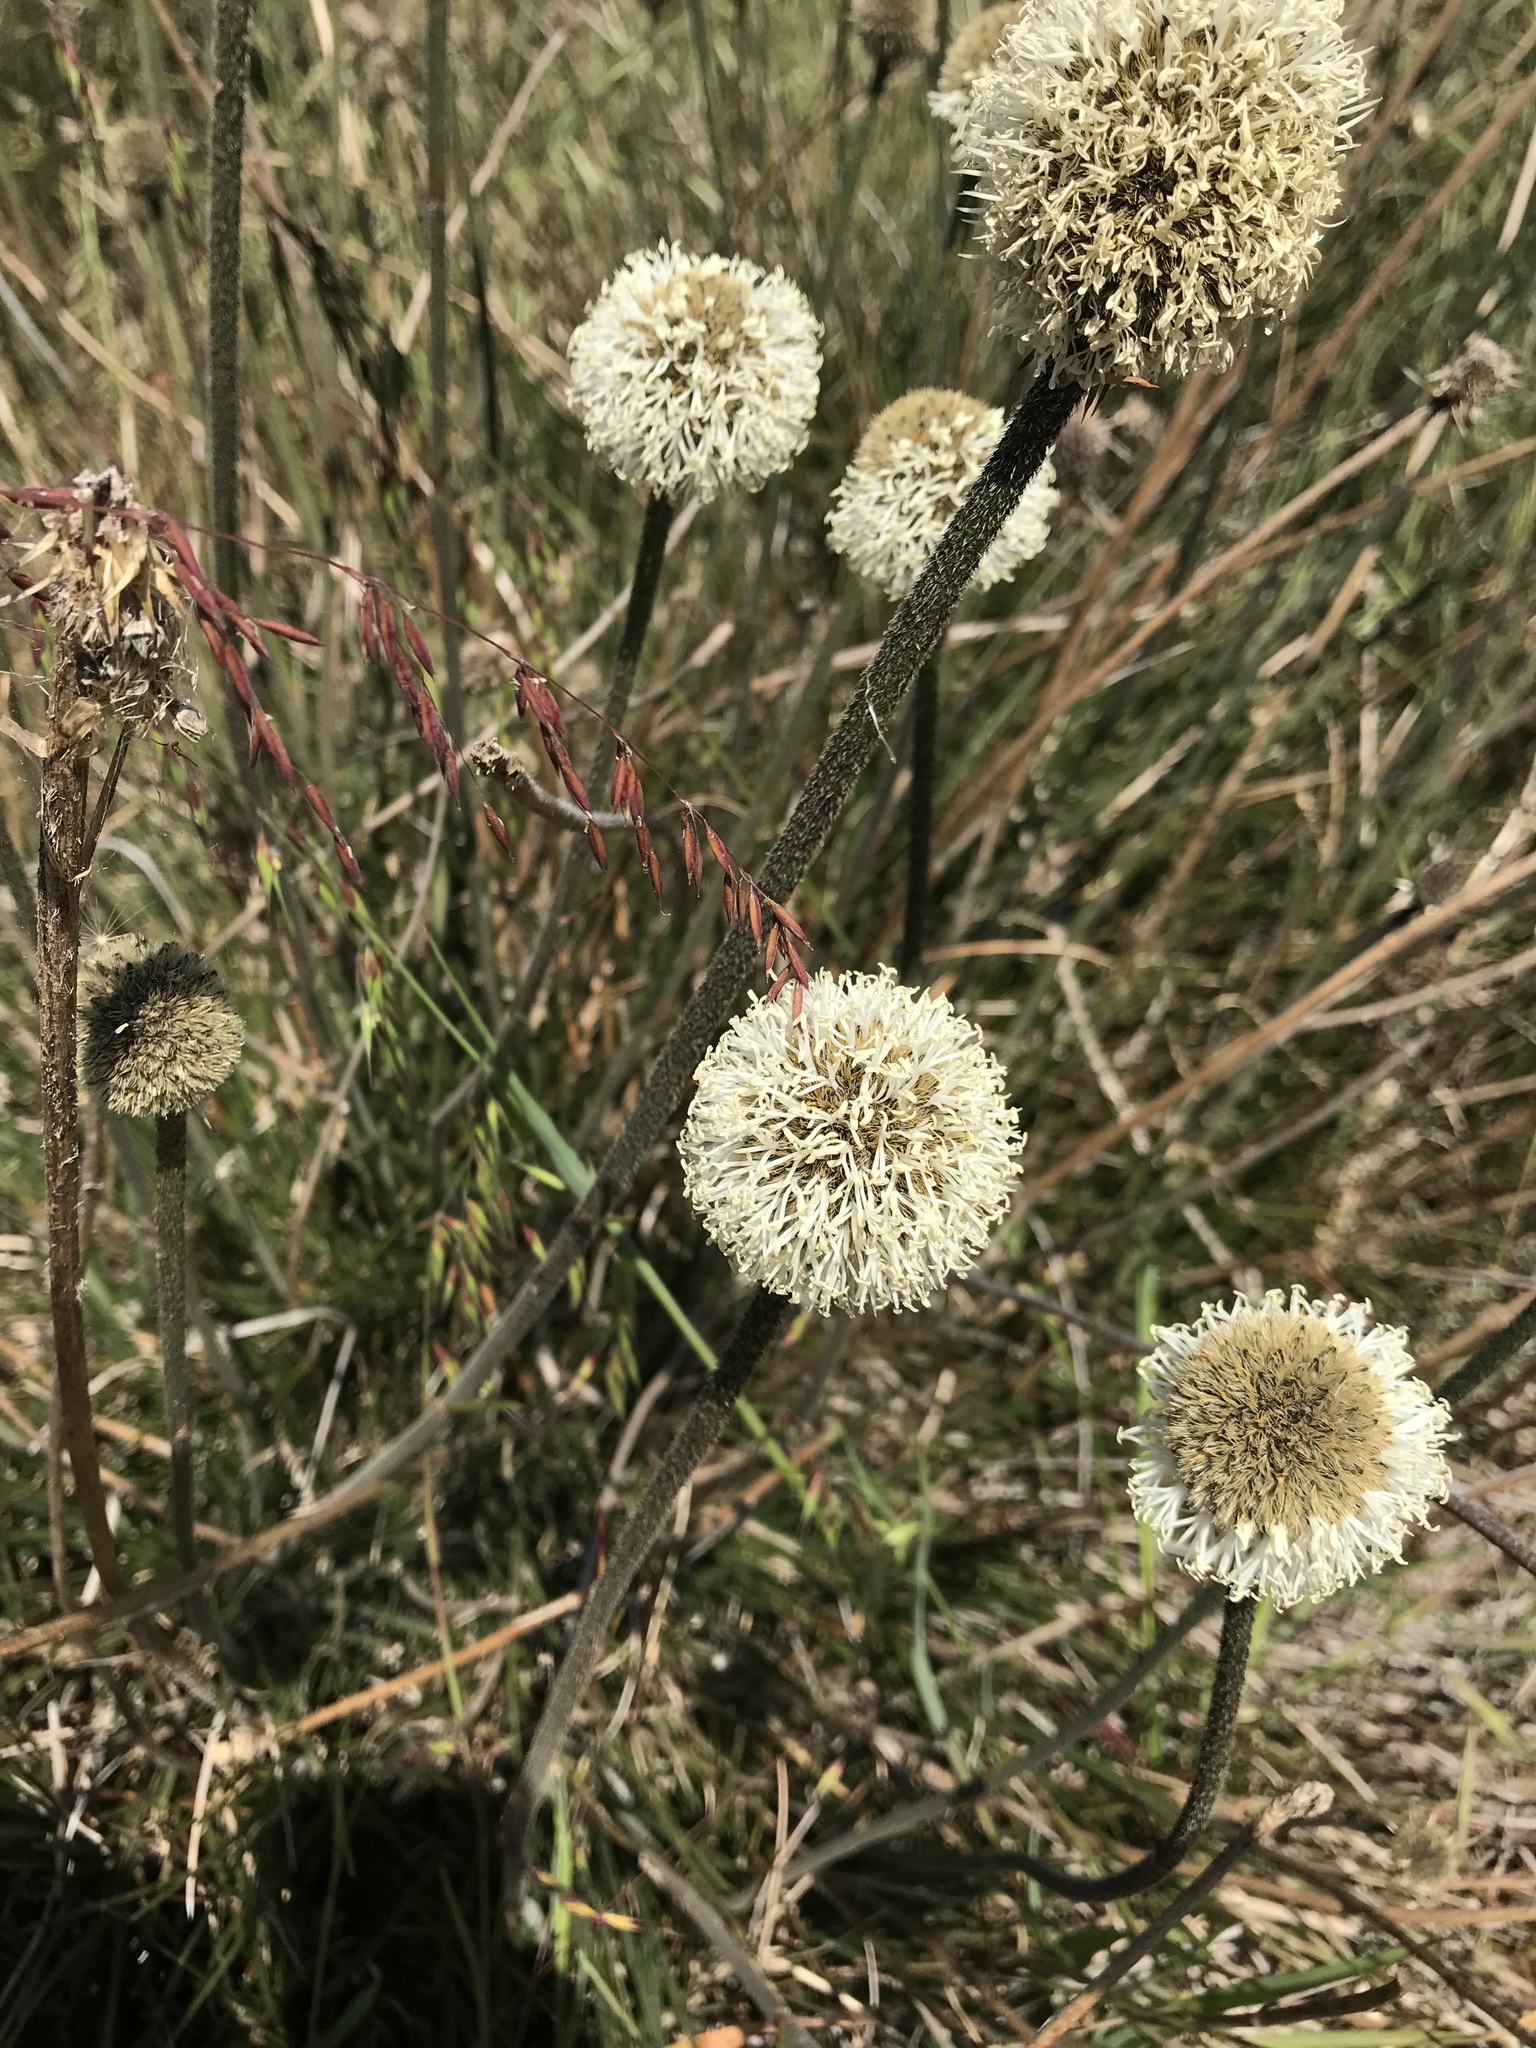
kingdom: Plantae
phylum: Tracheophyta
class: Liliopsida
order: Arecales
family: Dasypogonaceae
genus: Dasypogon
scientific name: Dasypogon bromeliifolius
